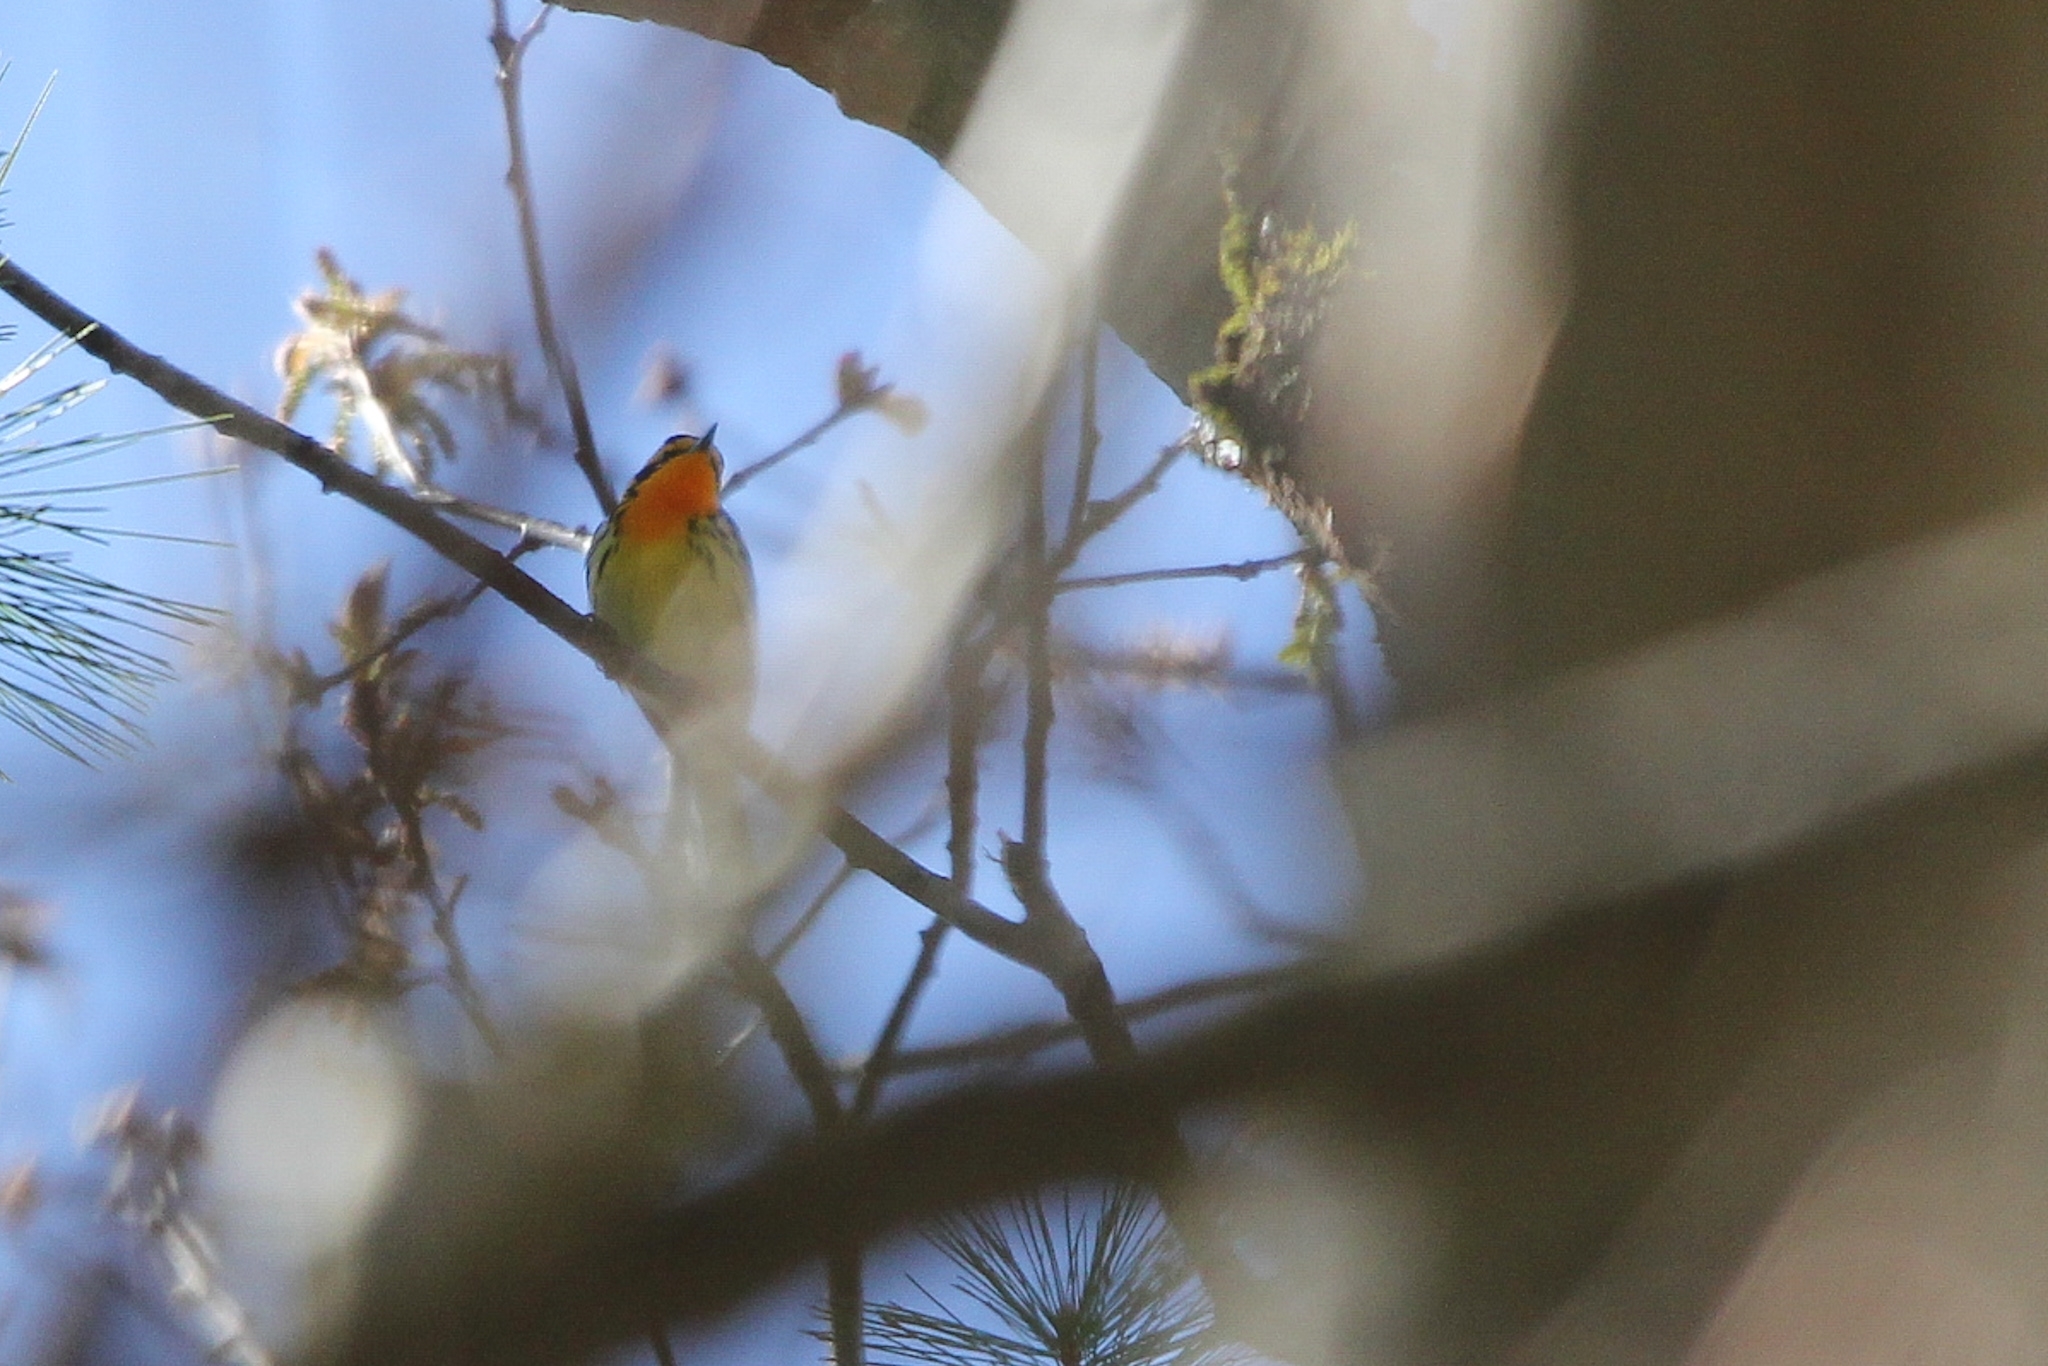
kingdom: Animalia
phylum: Chordata
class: Aves
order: Passeriformes
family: Parulidae
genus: Setophaga
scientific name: Setophaga fusca
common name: Blackburnian warbler
